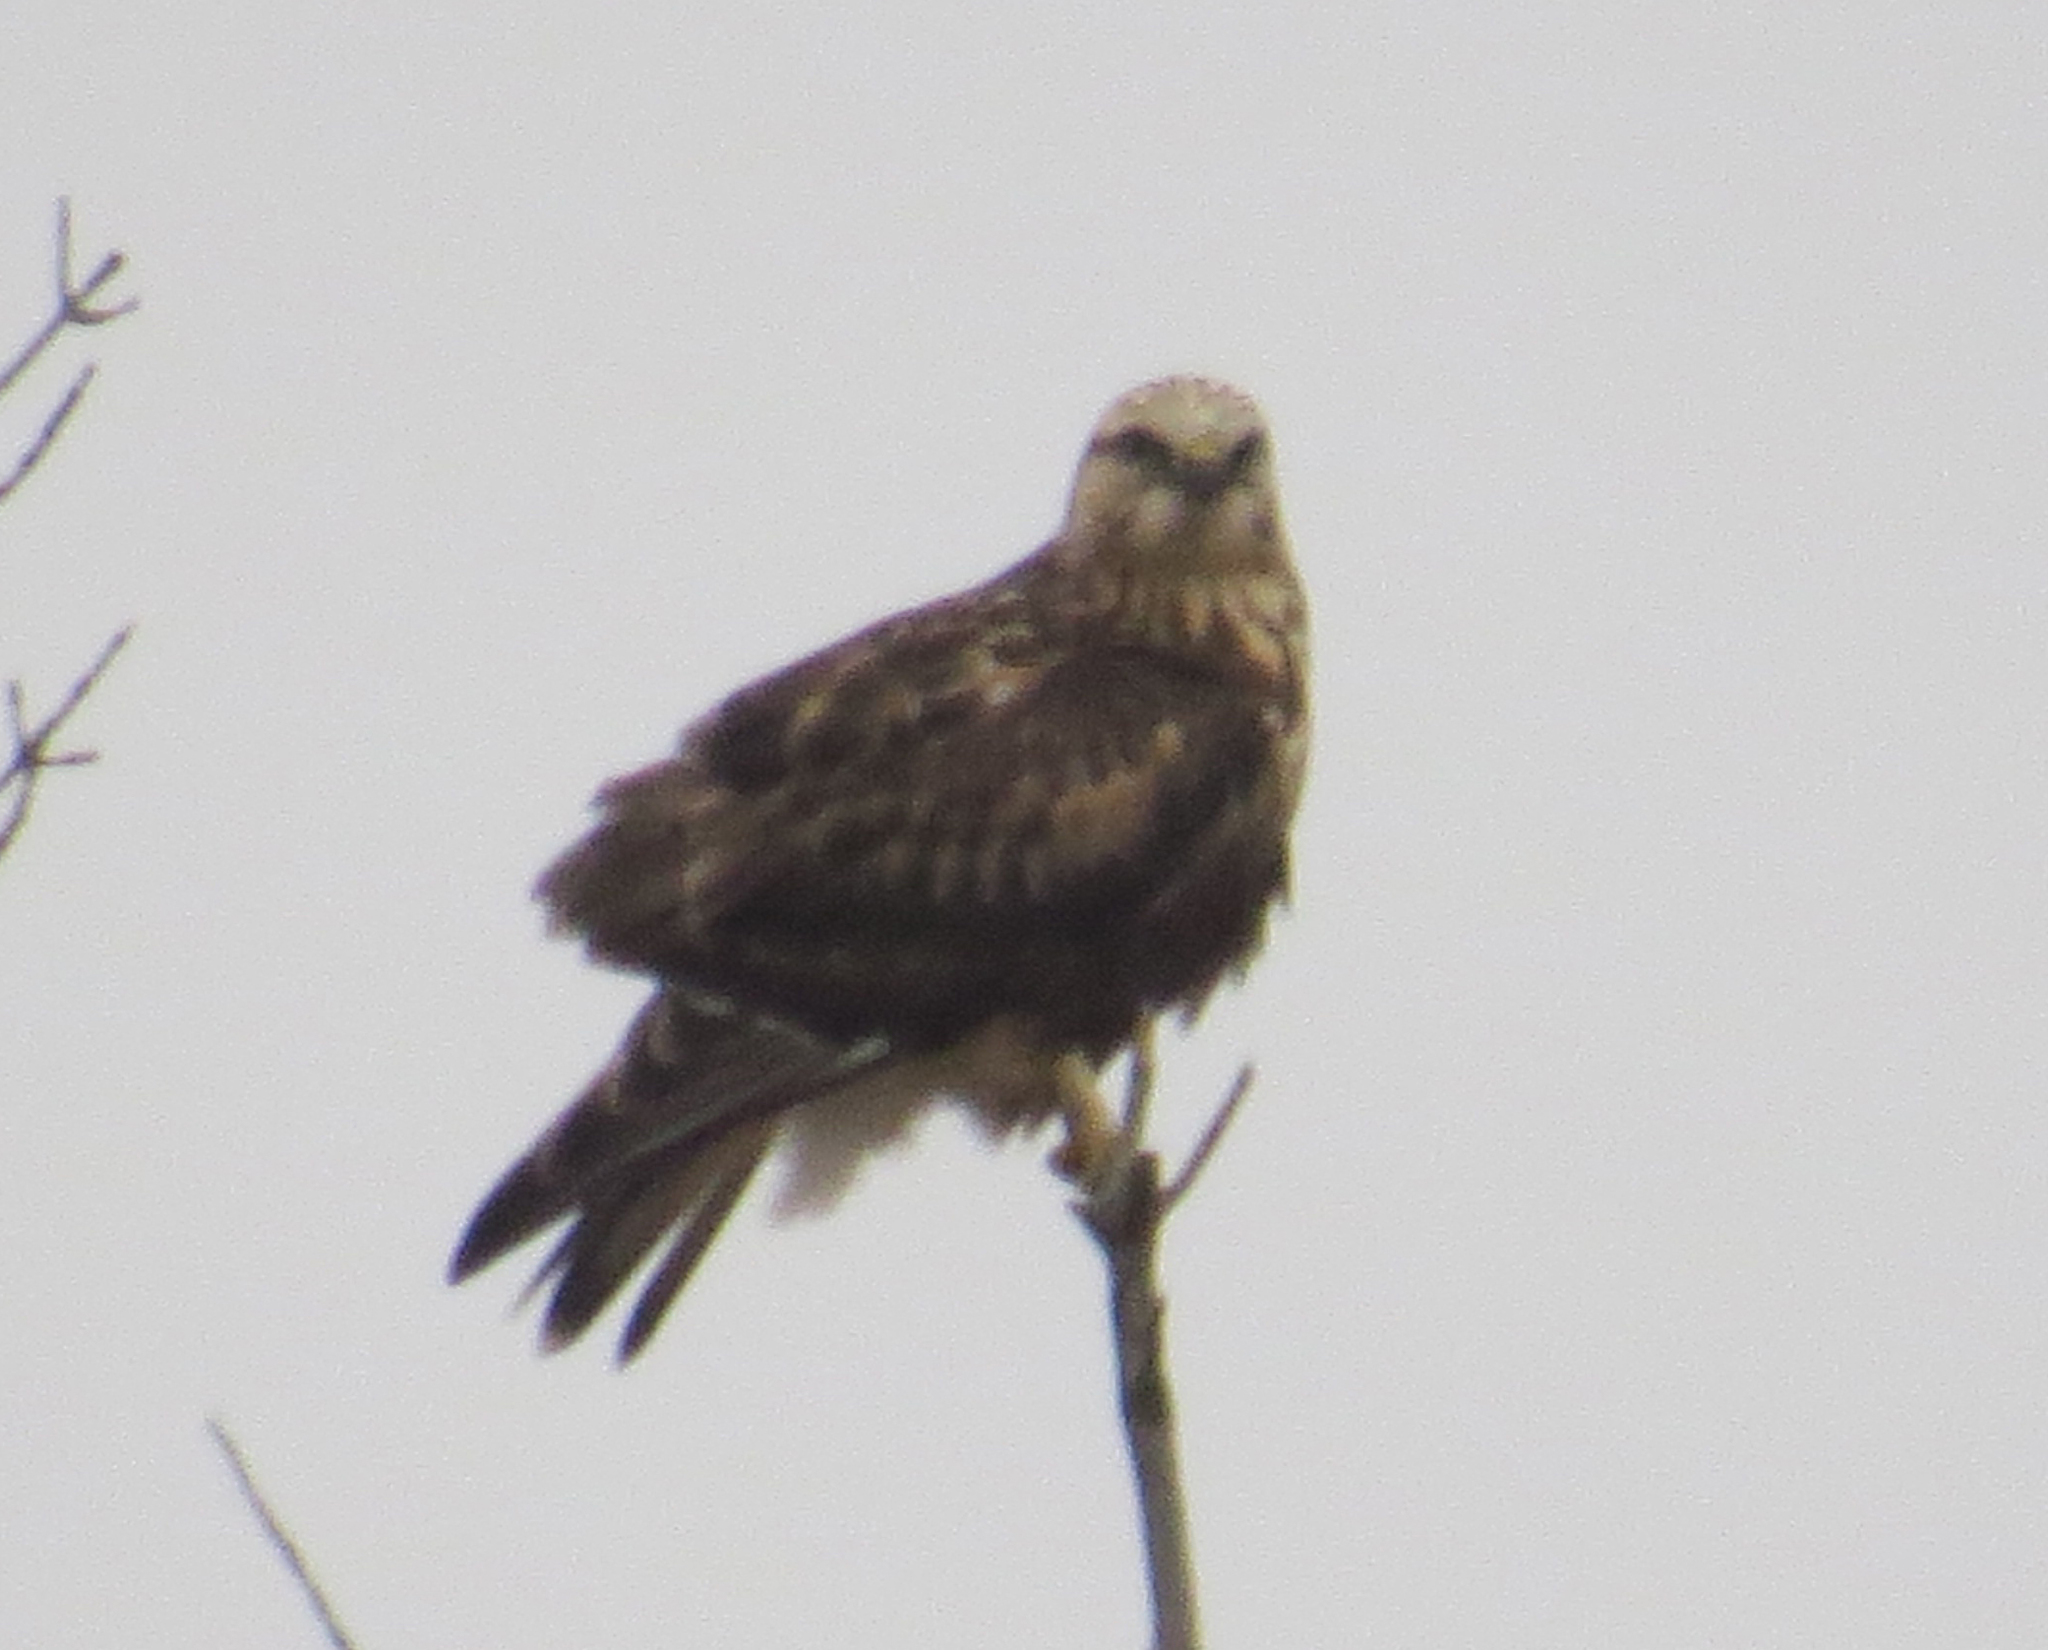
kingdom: Animalia
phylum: Chordata
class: Aves
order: Accipitriformes
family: Accipitridae
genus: Buteo
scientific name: Buteo lagopus
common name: Rough-legged buzzard
